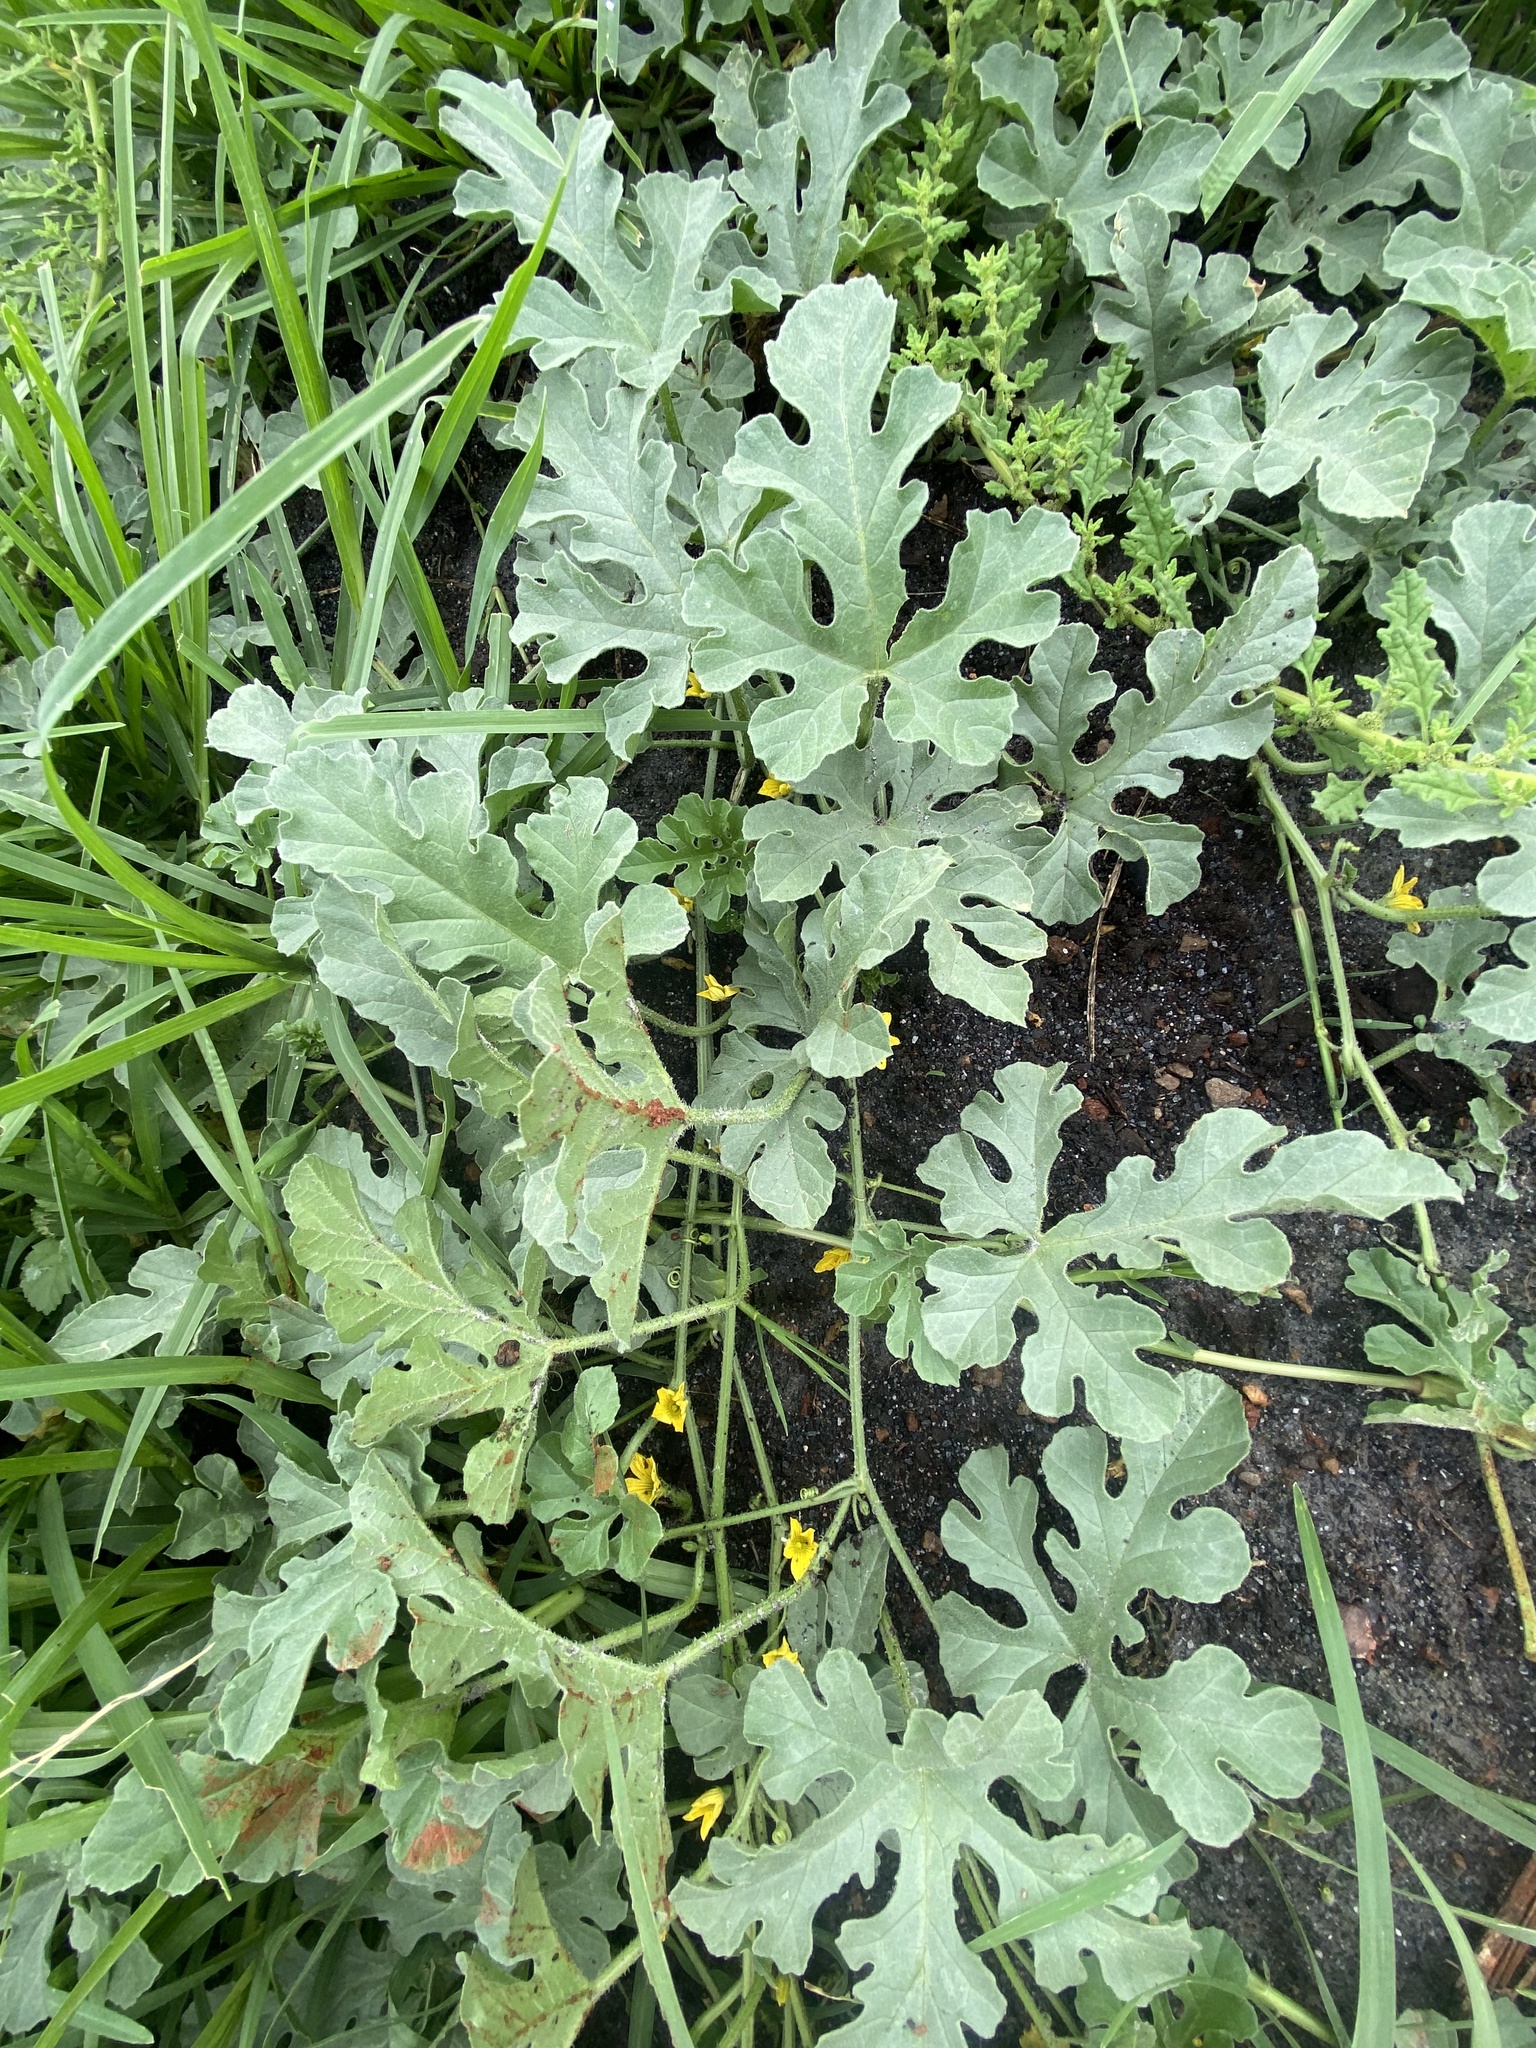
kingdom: Plantae
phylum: Tracheophyta
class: Magnoliopsida
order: Cucurbitales
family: Cucurbitaceae
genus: Citrullus
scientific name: Citrullus lanatus
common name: Watermelon
